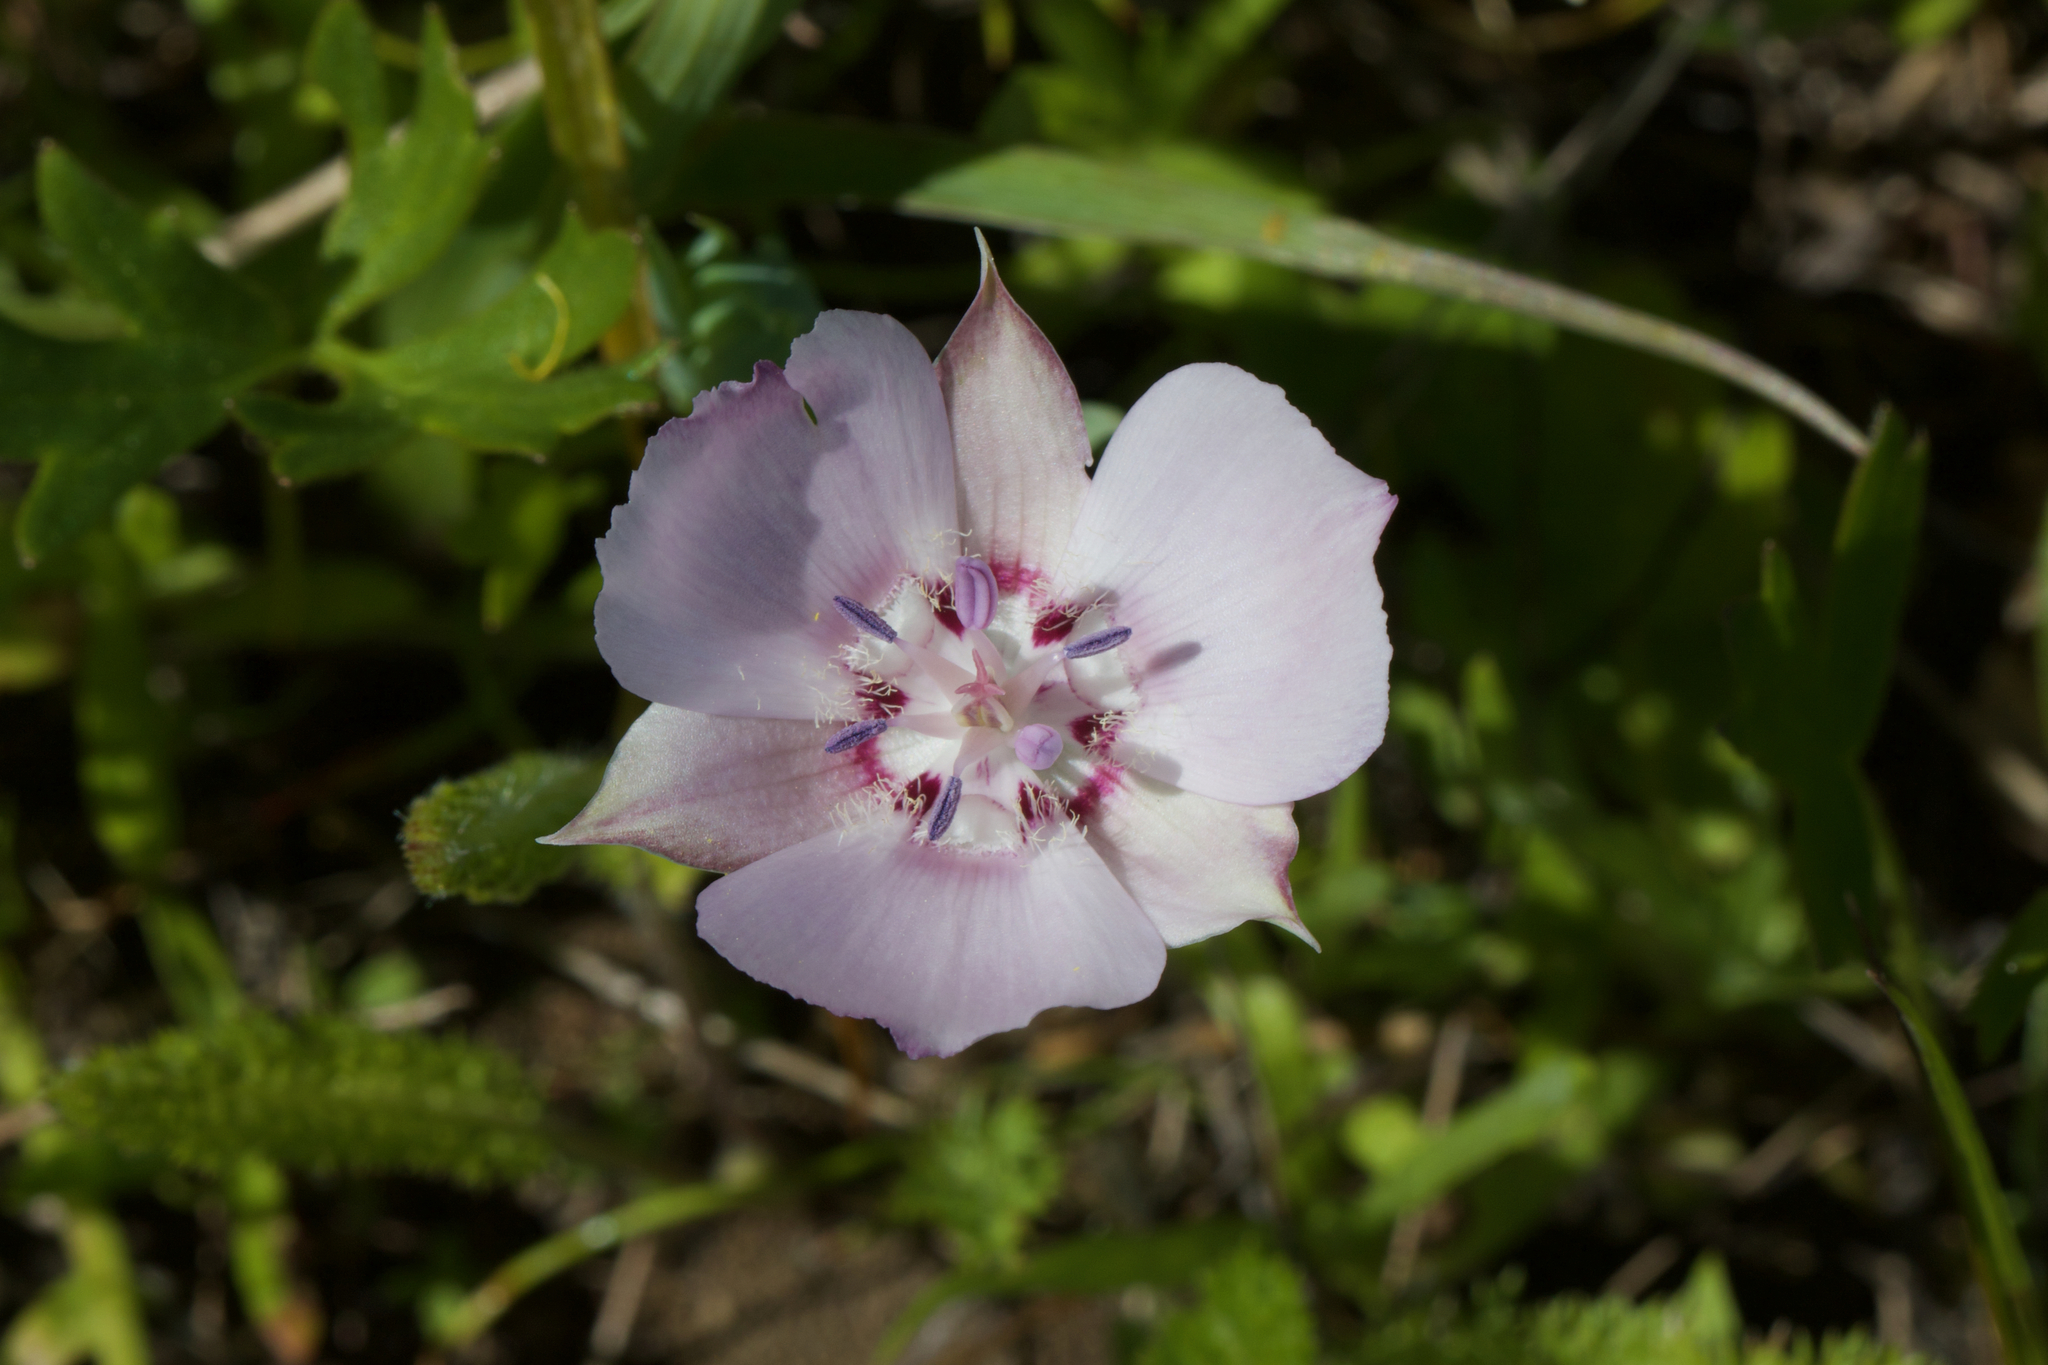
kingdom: Plantae
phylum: Tracheophyta
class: Liliopsida
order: Liliales
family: Liliaceae
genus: Calochortus
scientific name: Calochortus umbellatus
